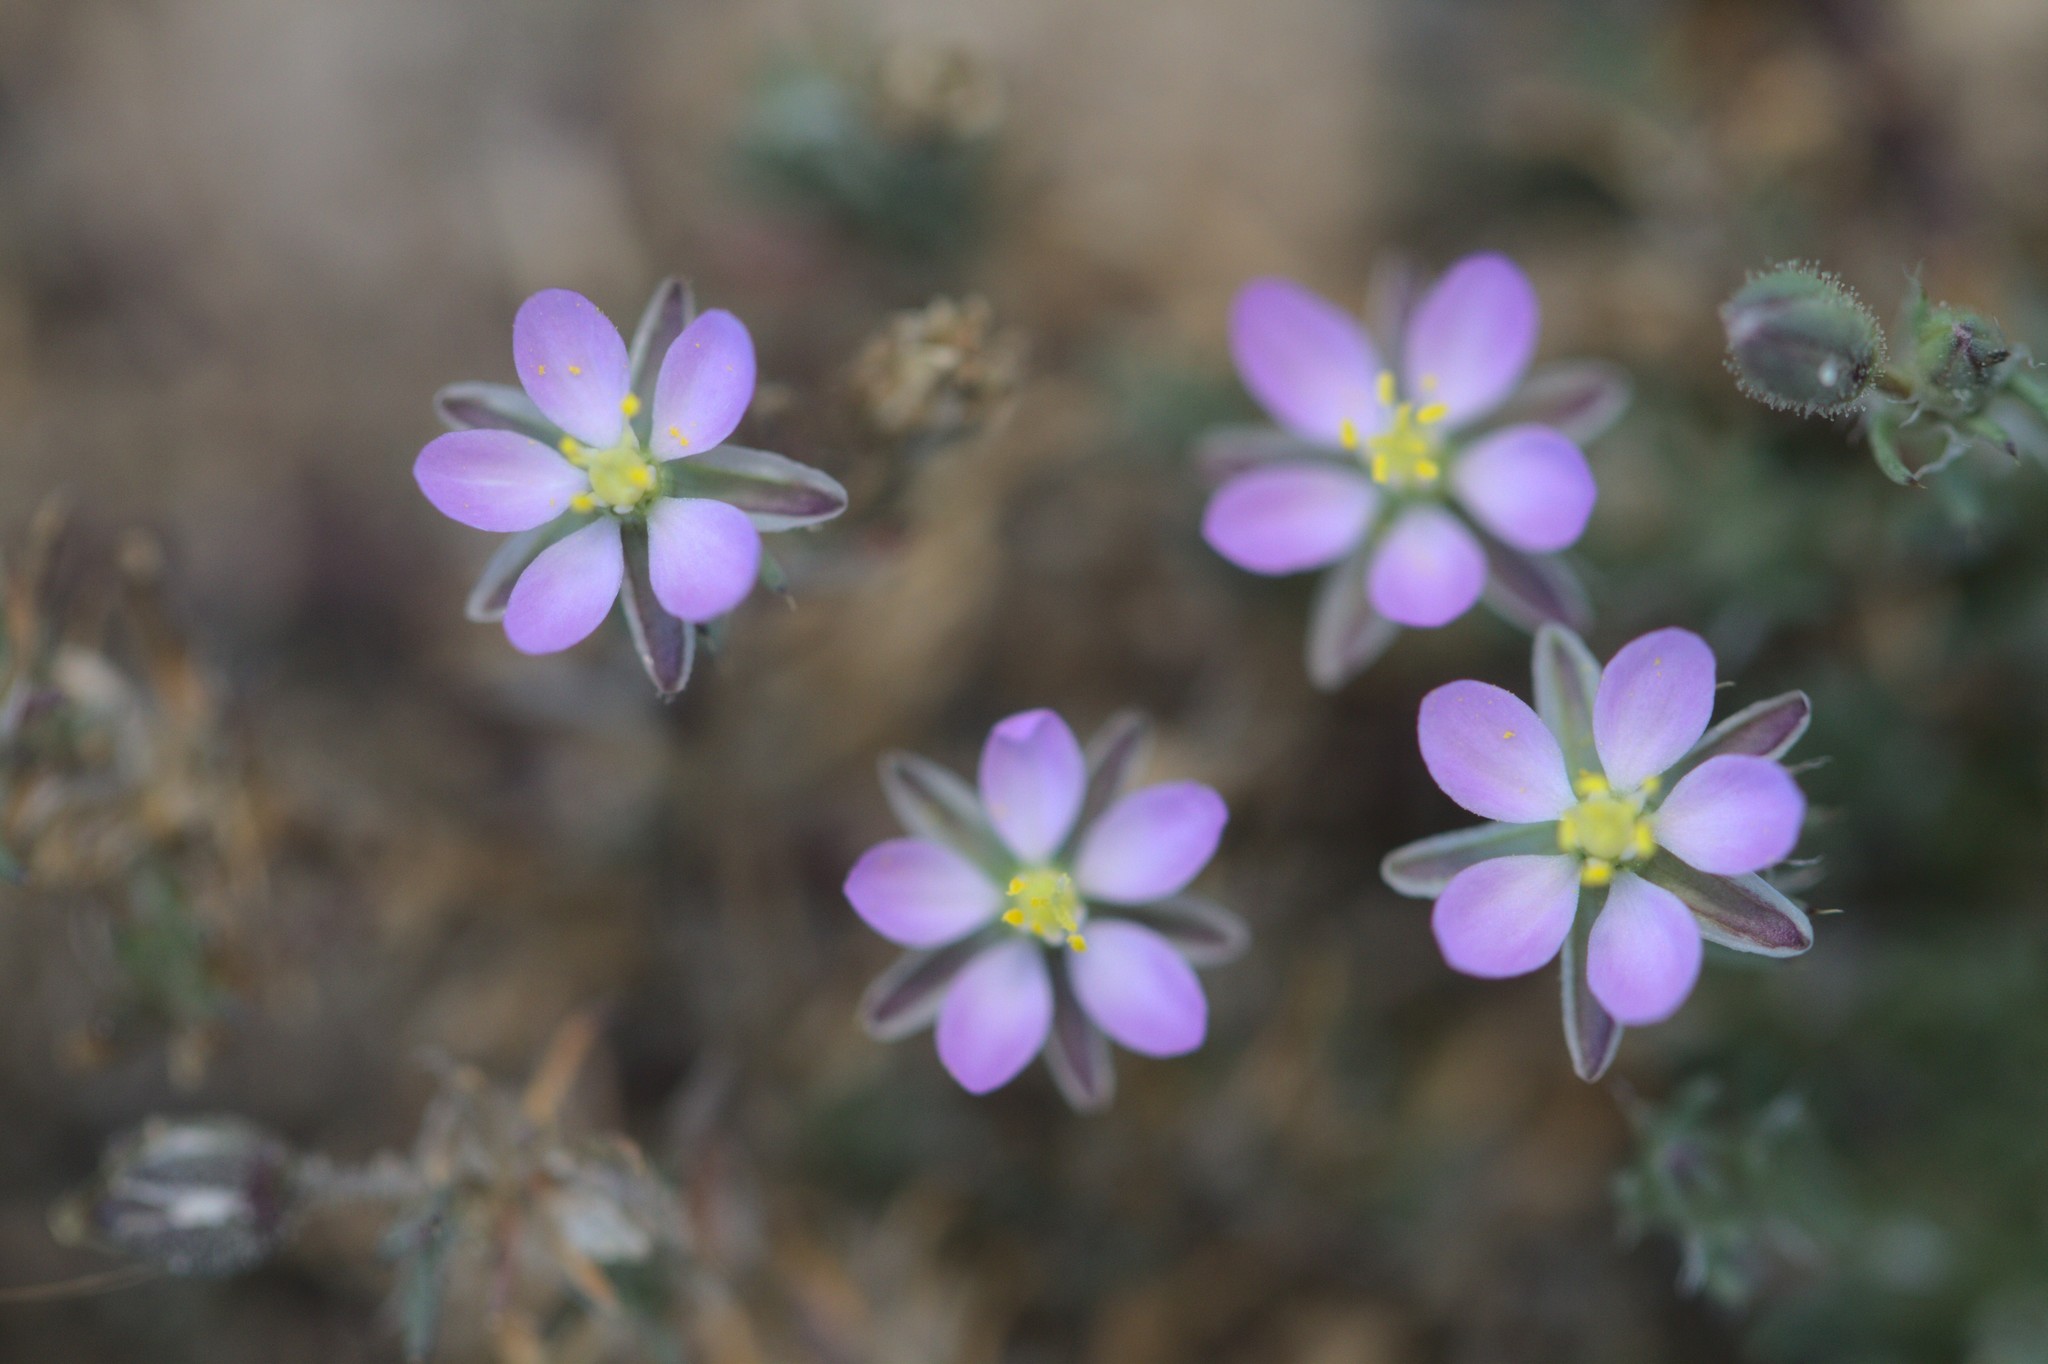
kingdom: Plantae
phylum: Tracheophyta
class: Magnoliopsida
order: Caryophyllales
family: Caryophyllaceae
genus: Spergularia
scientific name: Spergularia rubra
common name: Red sand-spurrey
